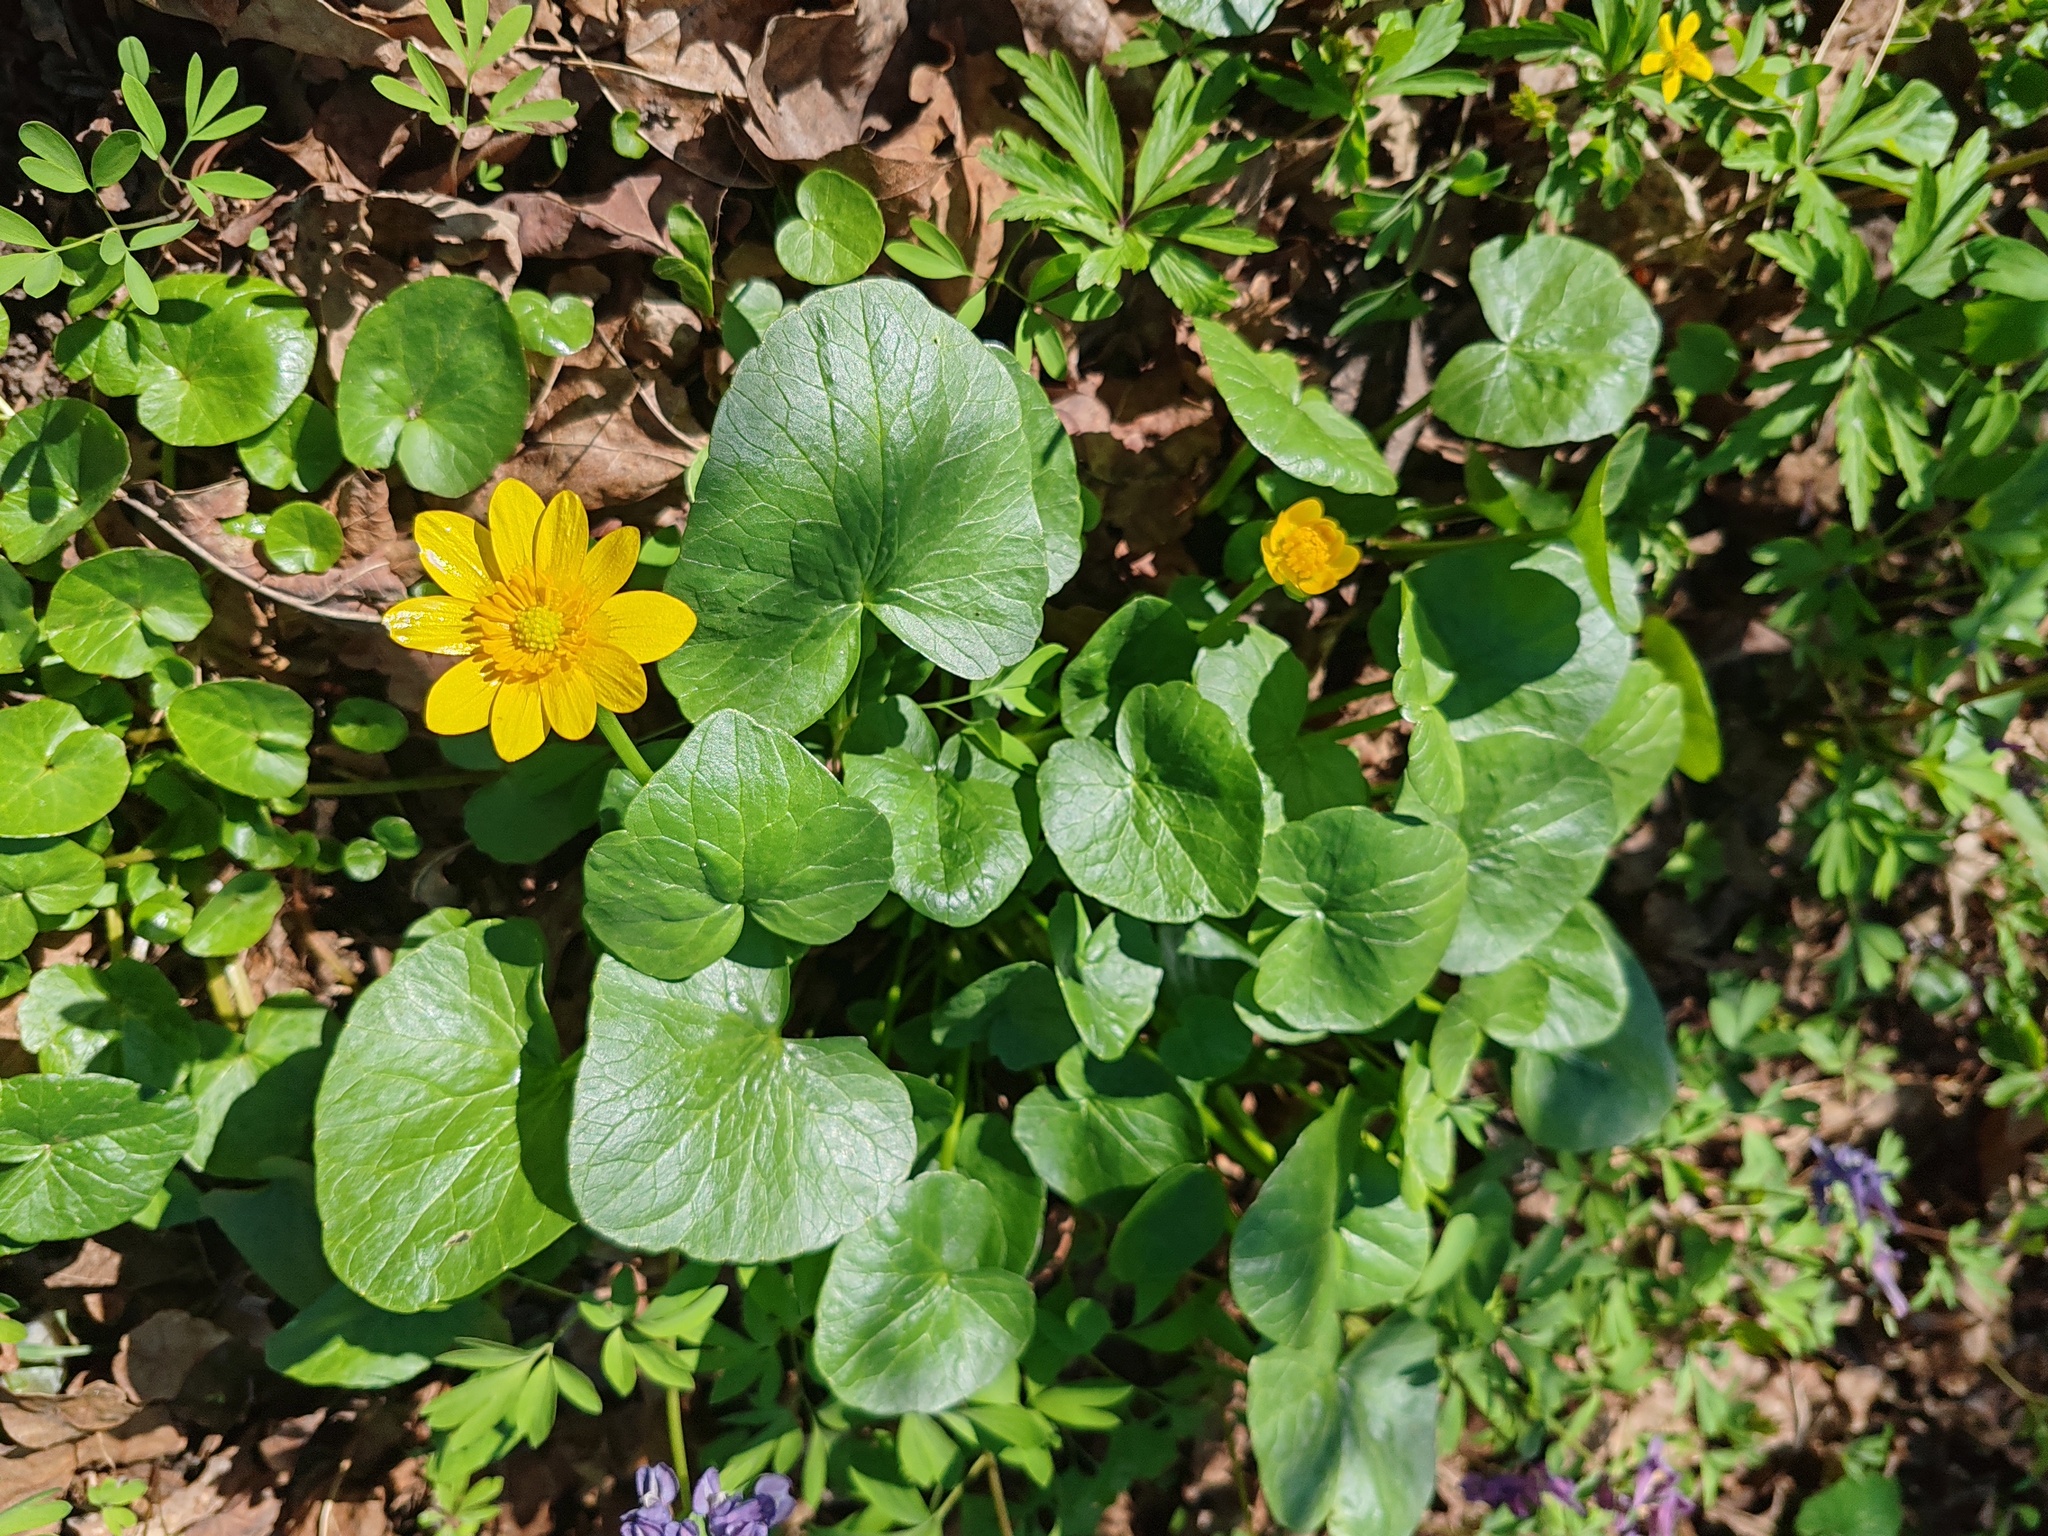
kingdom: Plantae
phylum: Tracheophyta
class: Magnoliopsida
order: Ranunculales
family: Ranunculaceae
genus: Ficaria
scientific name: Ficaria verna
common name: Lesser celandine
